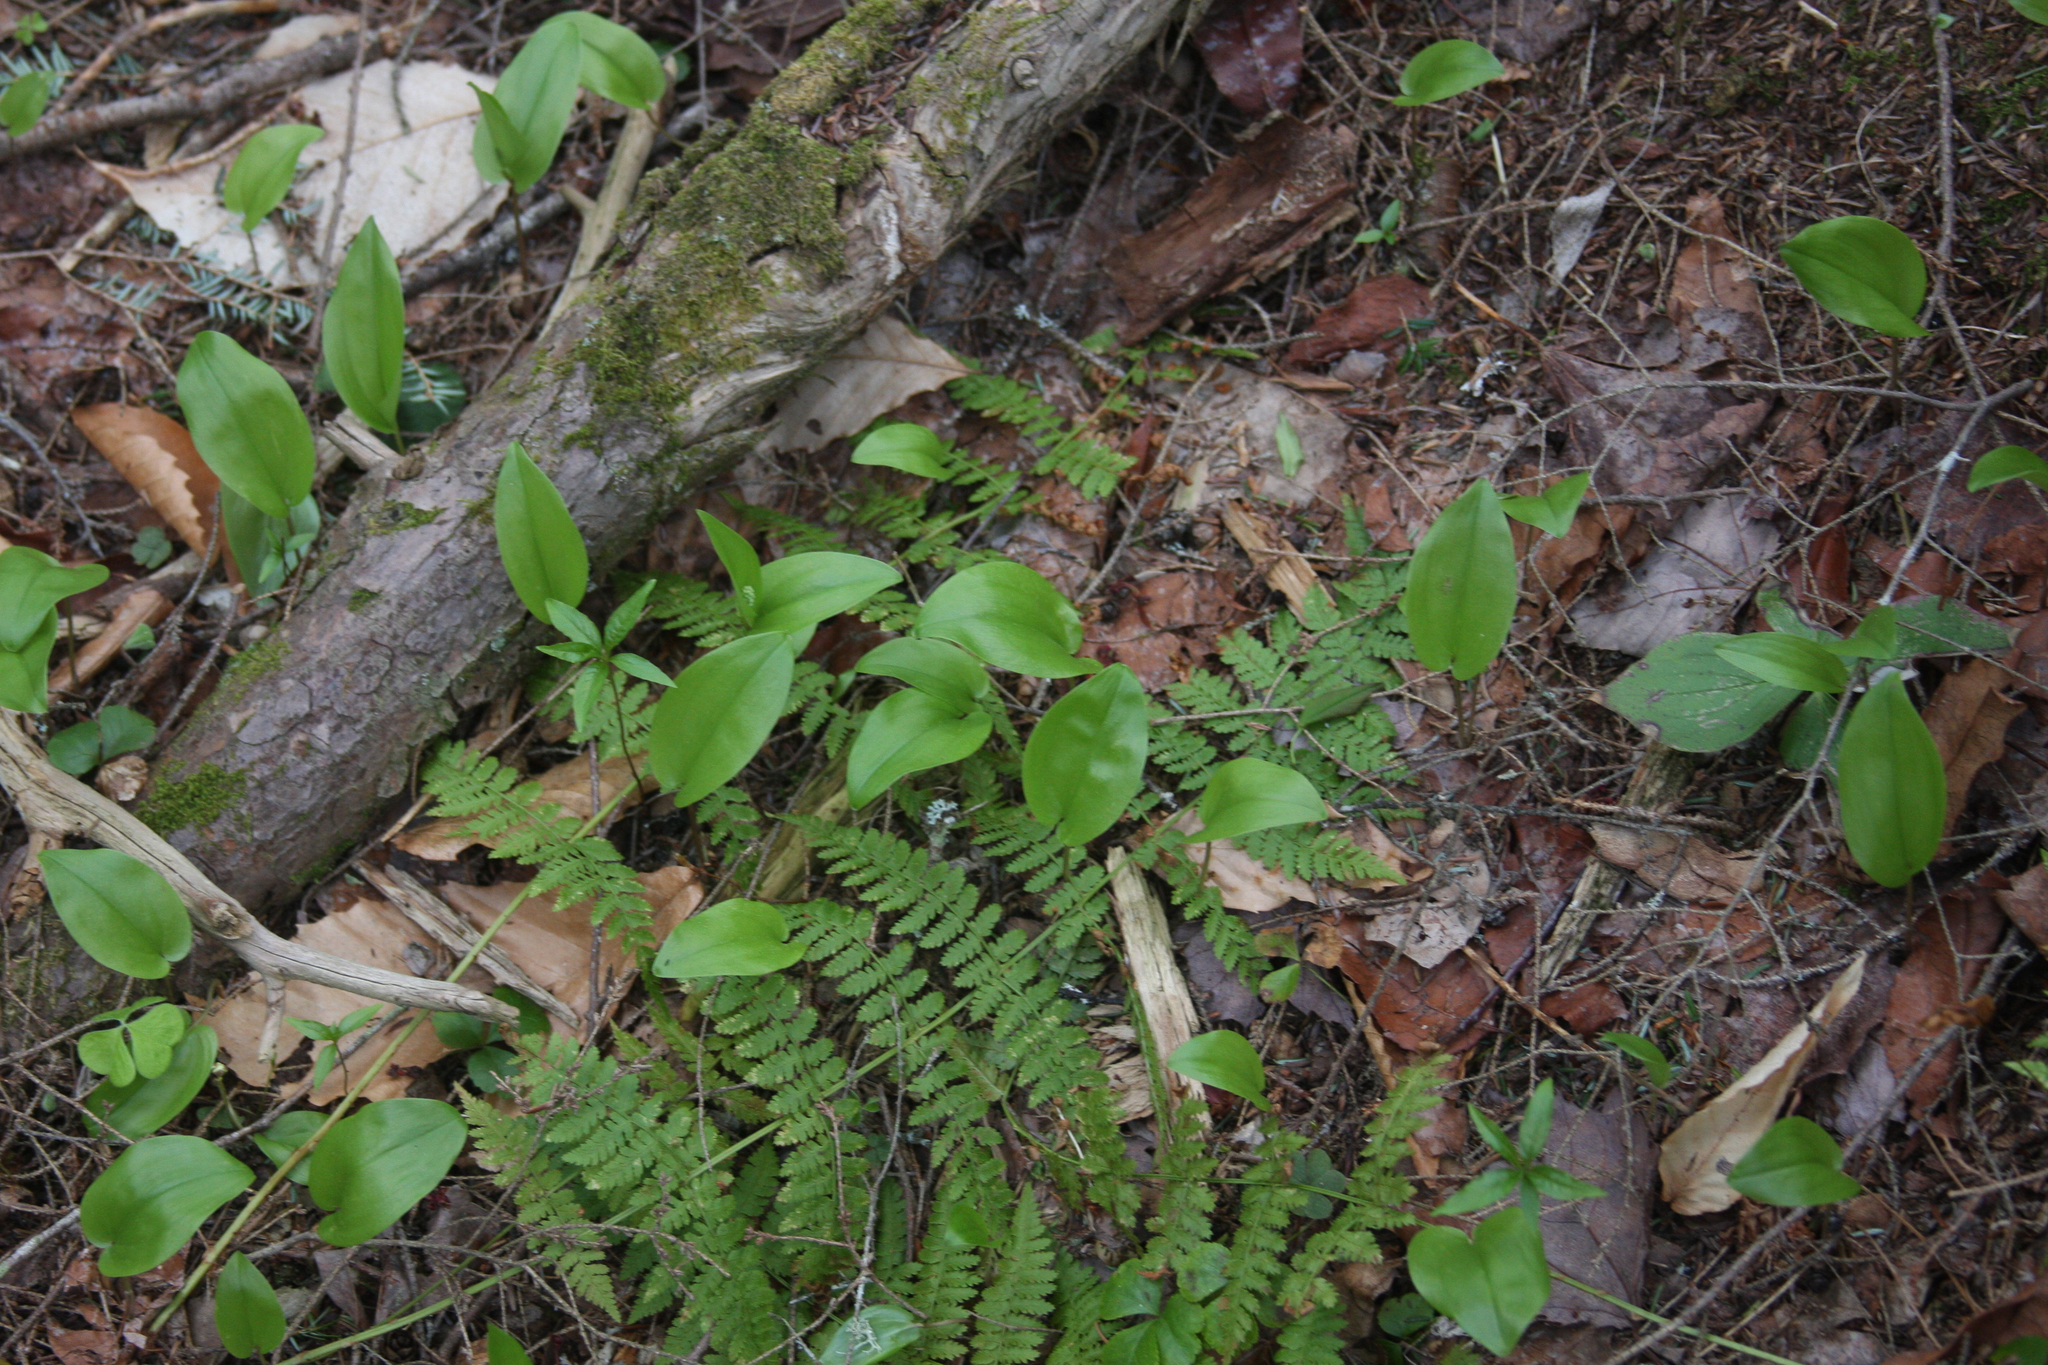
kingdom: Plantae
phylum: Tracheophyta
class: Liliopsida
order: Asparagales
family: Asparagaceae
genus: Maianthemum
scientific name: Maianthemum canadense
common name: False lily-of-the-valley
